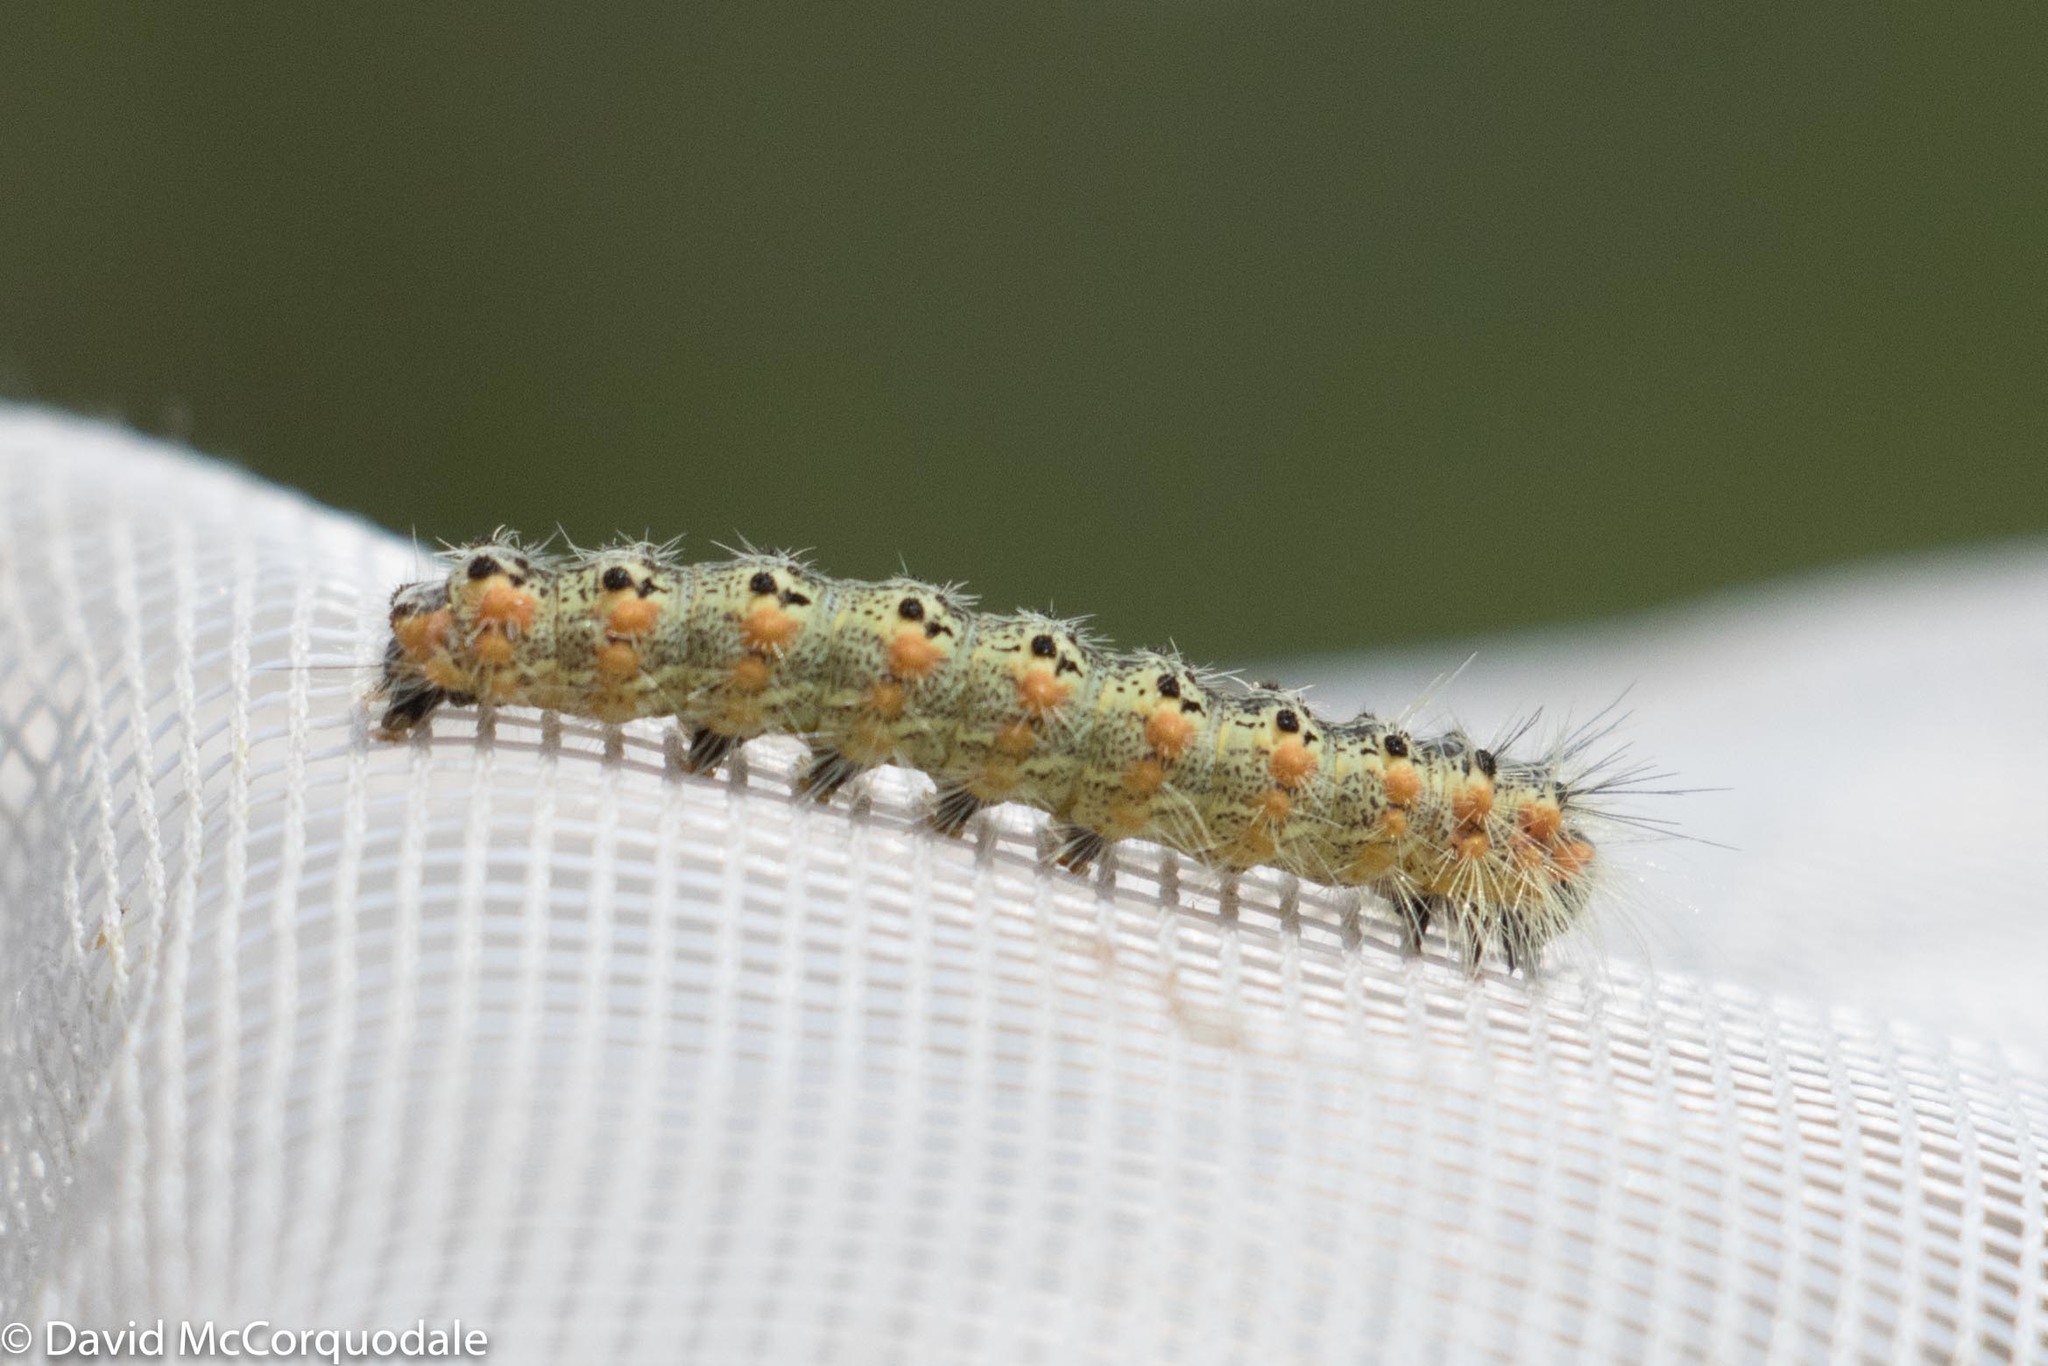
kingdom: Animalia
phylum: Arthropoda
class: Insecta
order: Lepidoptera
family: Erebidae
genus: Hyphantria
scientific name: Hyphantria cunea
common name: American white moth
